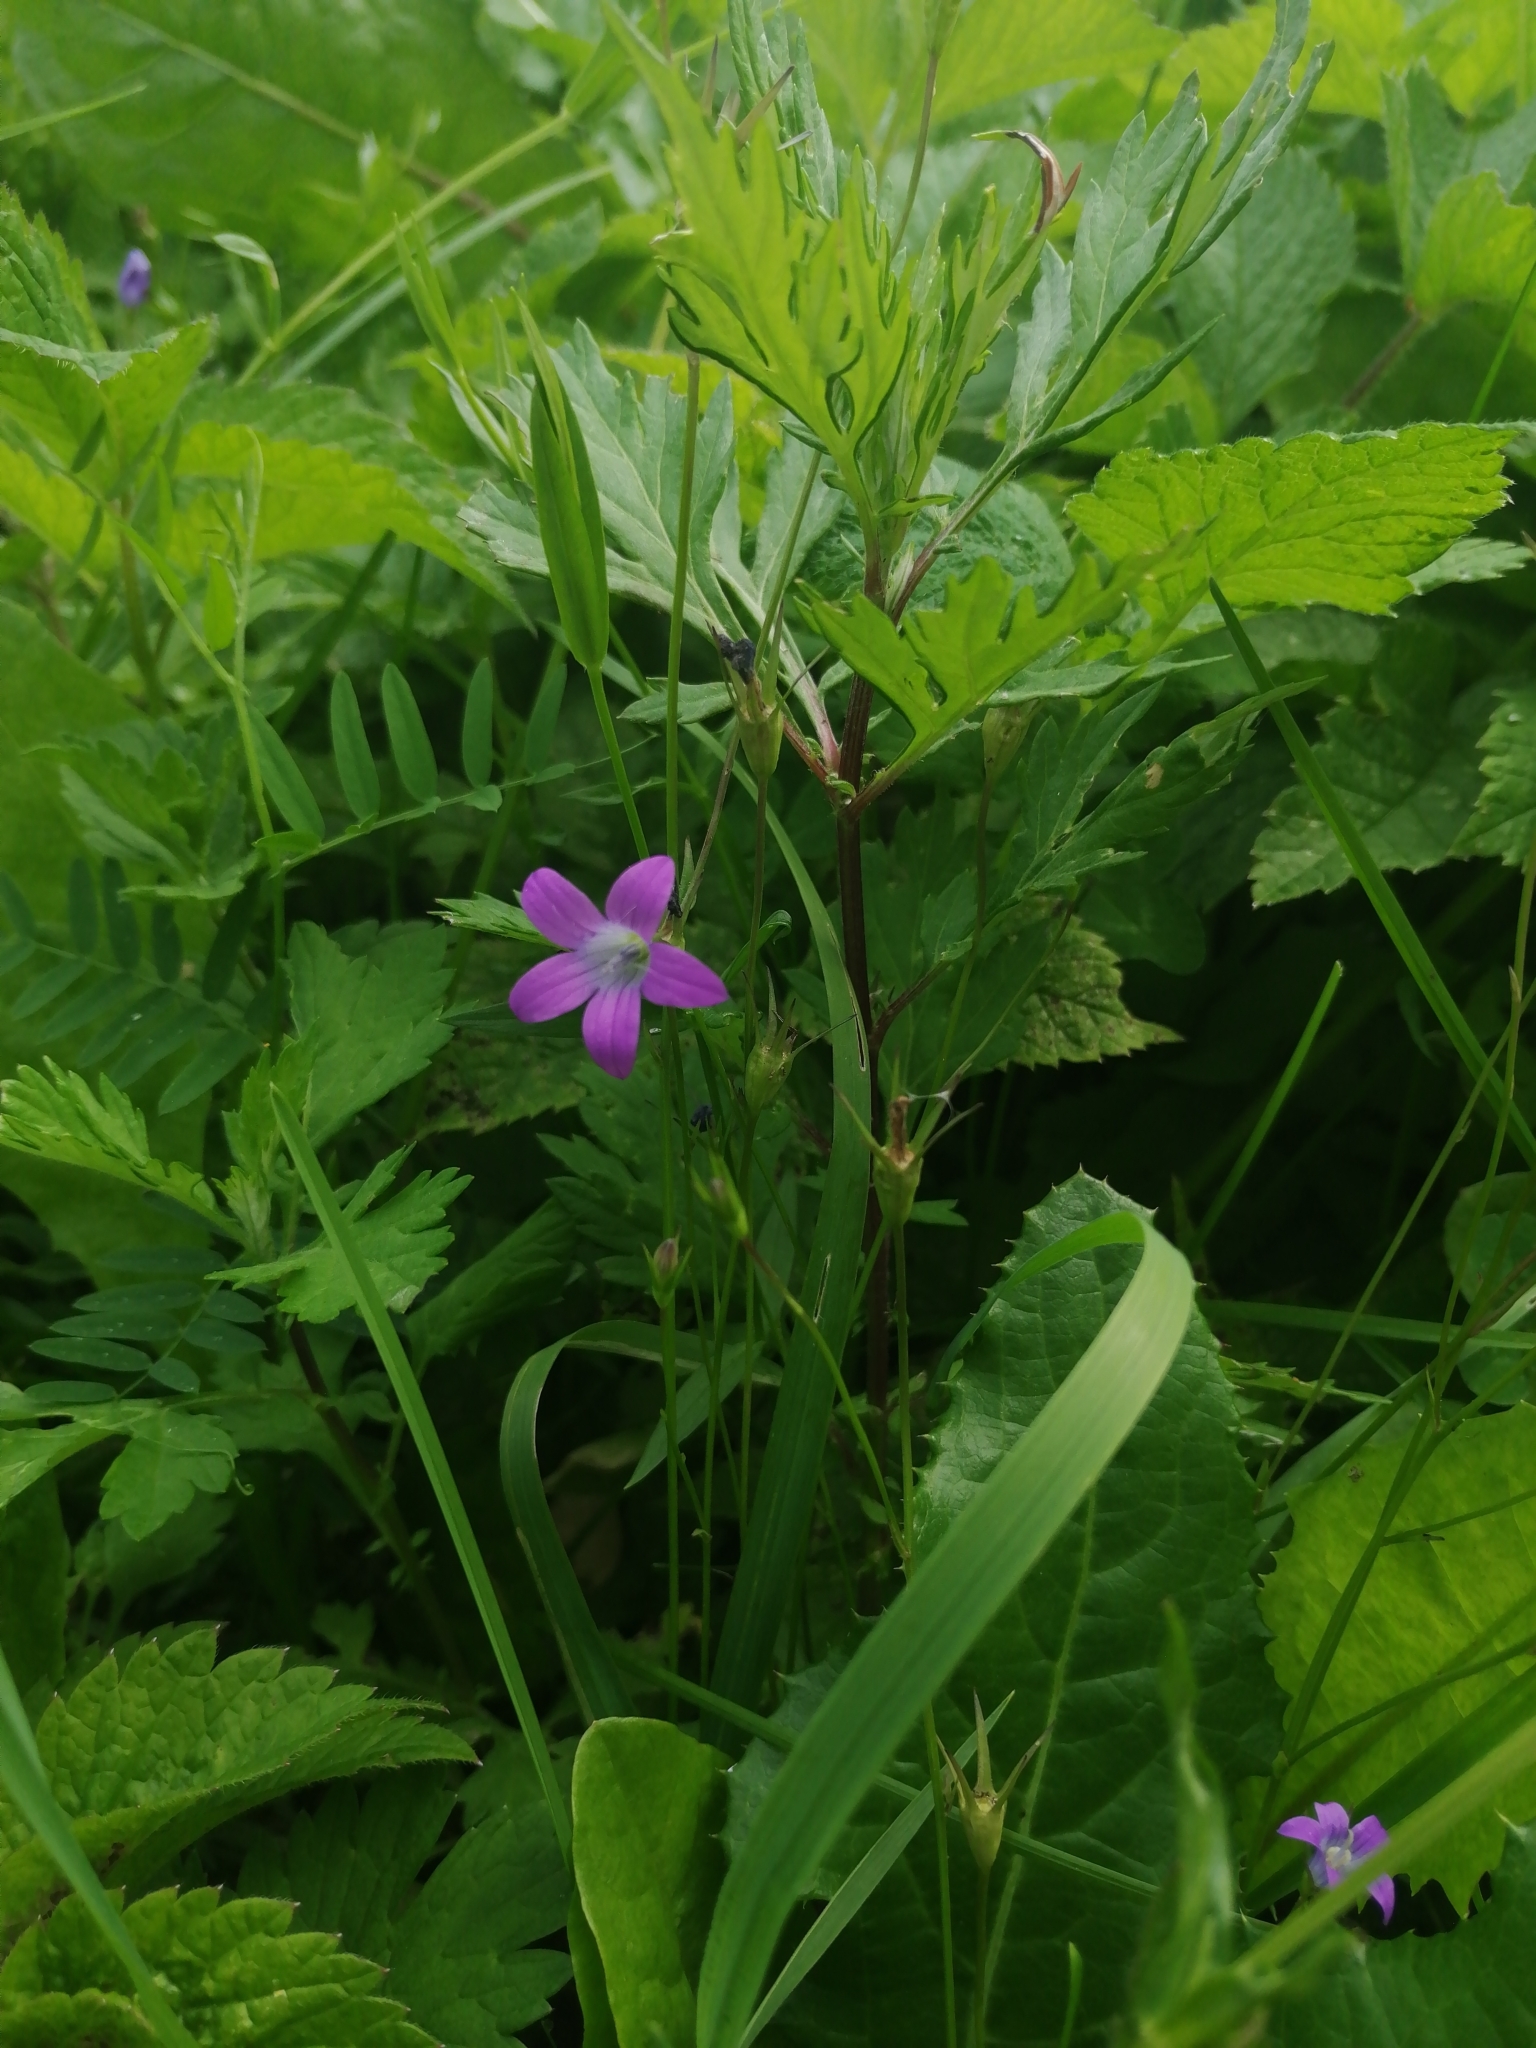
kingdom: Plantae
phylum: Tracheophyta
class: Magnoliopsida
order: Asterales
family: Campanulaceae
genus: Campanula
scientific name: Campanula patula
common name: Spreading bellflower
